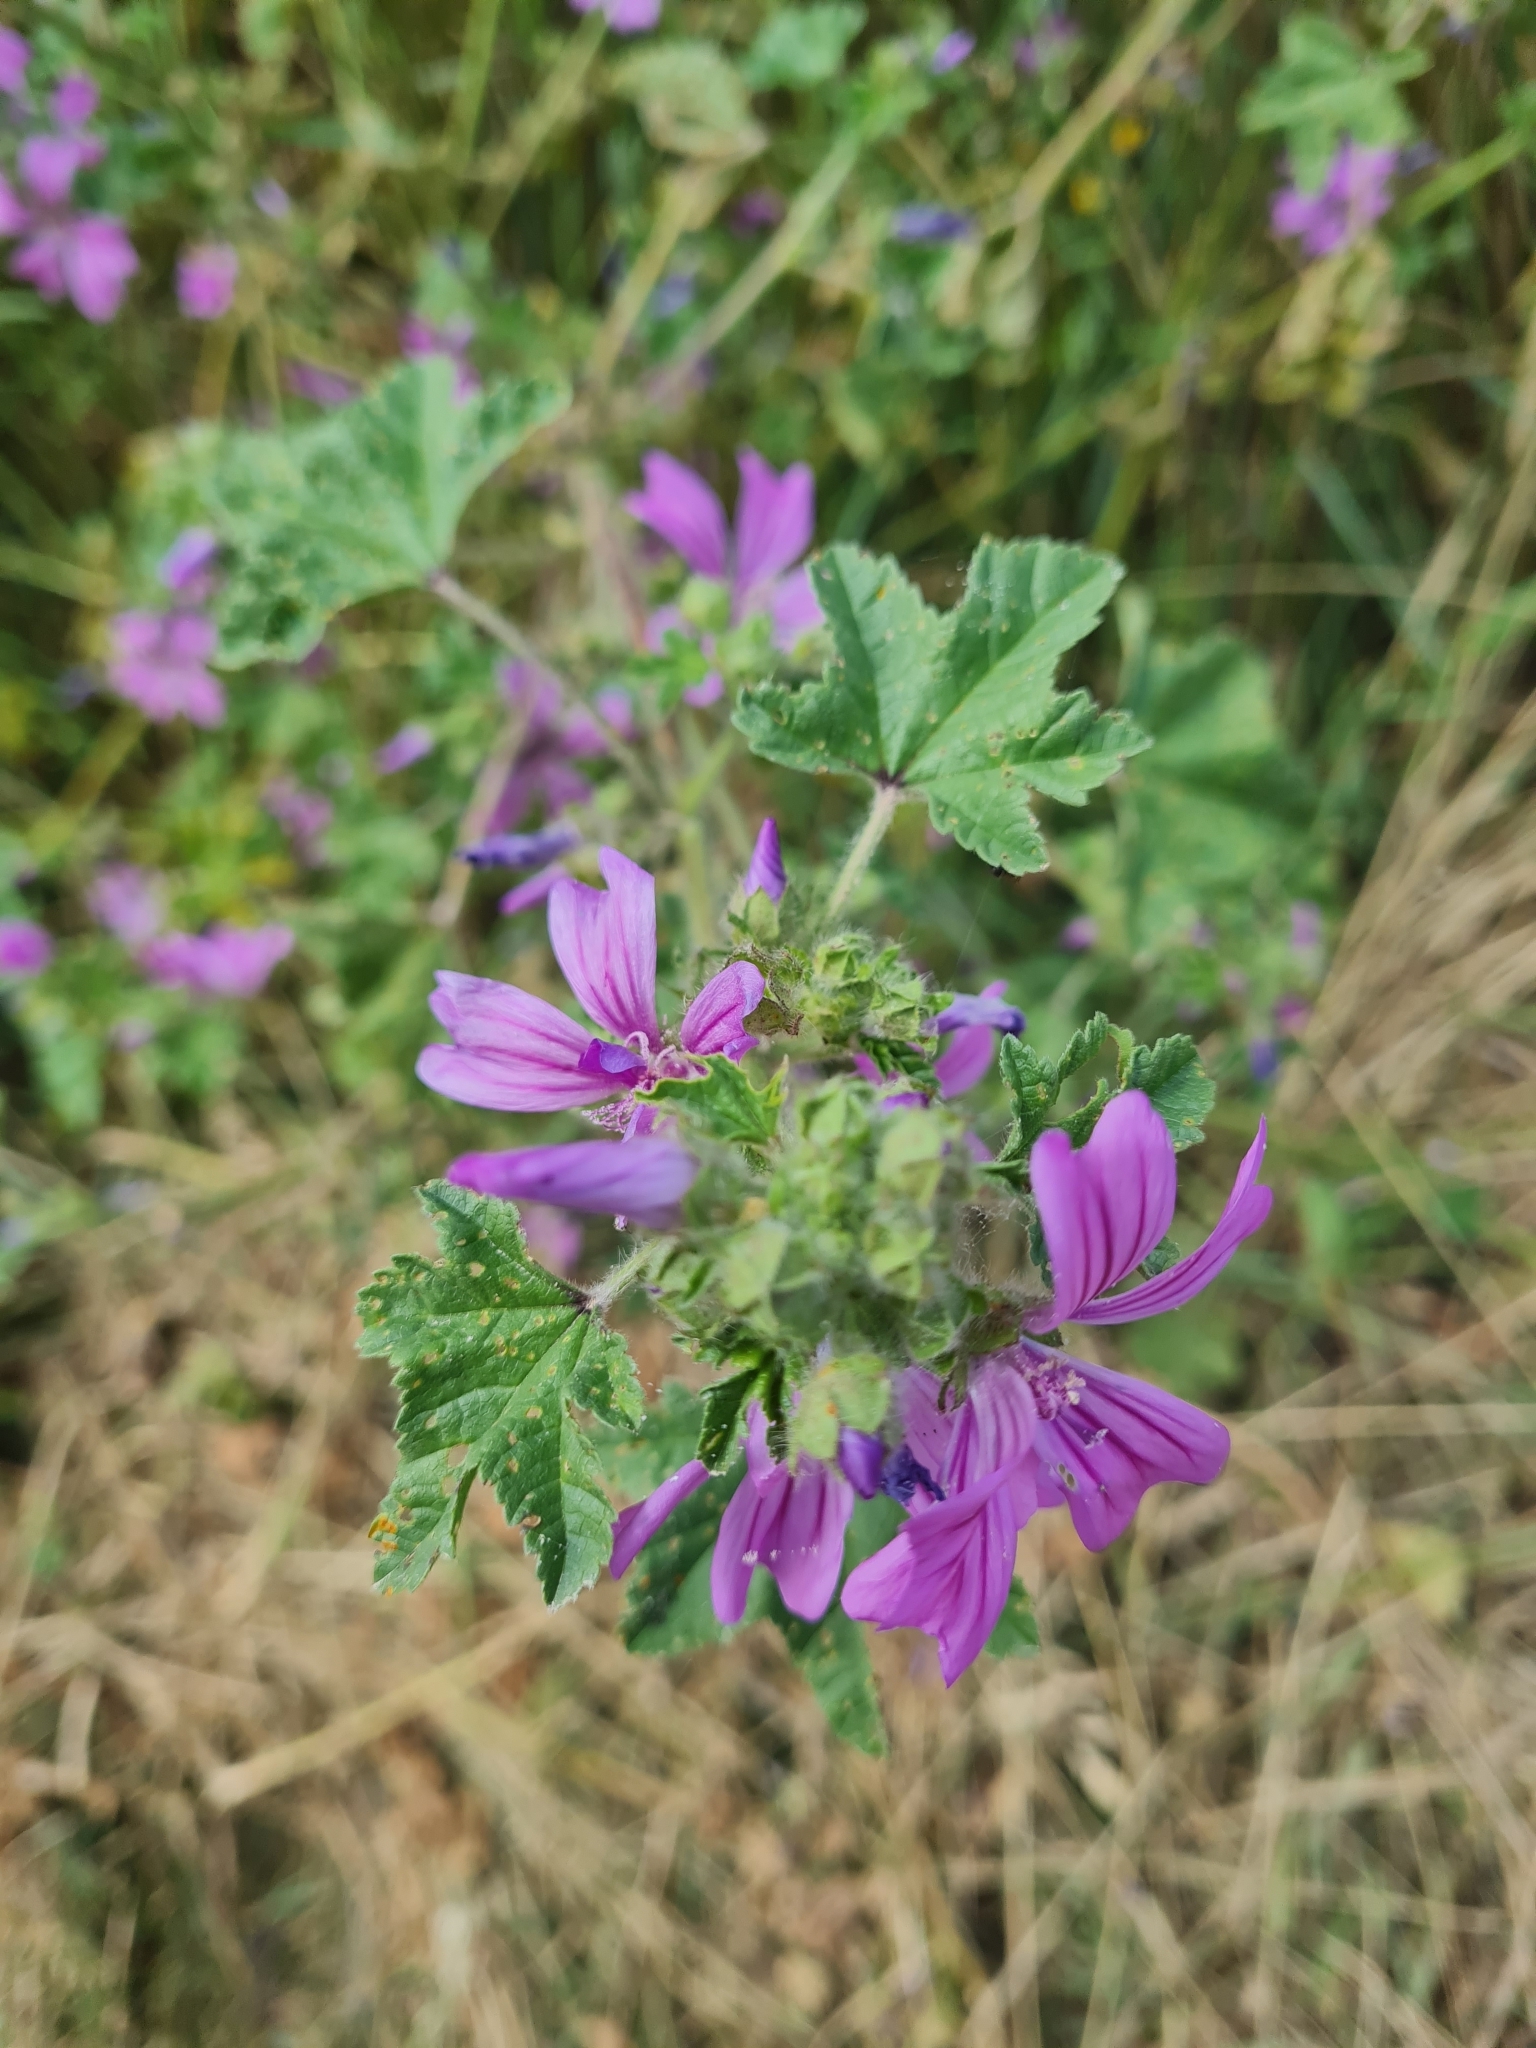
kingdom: Plantae
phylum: Tracheophyta
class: Magnoliopsida
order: Malvales
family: Malvaceae
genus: Malva
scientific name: Malva sylvestris
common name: Common mallow
